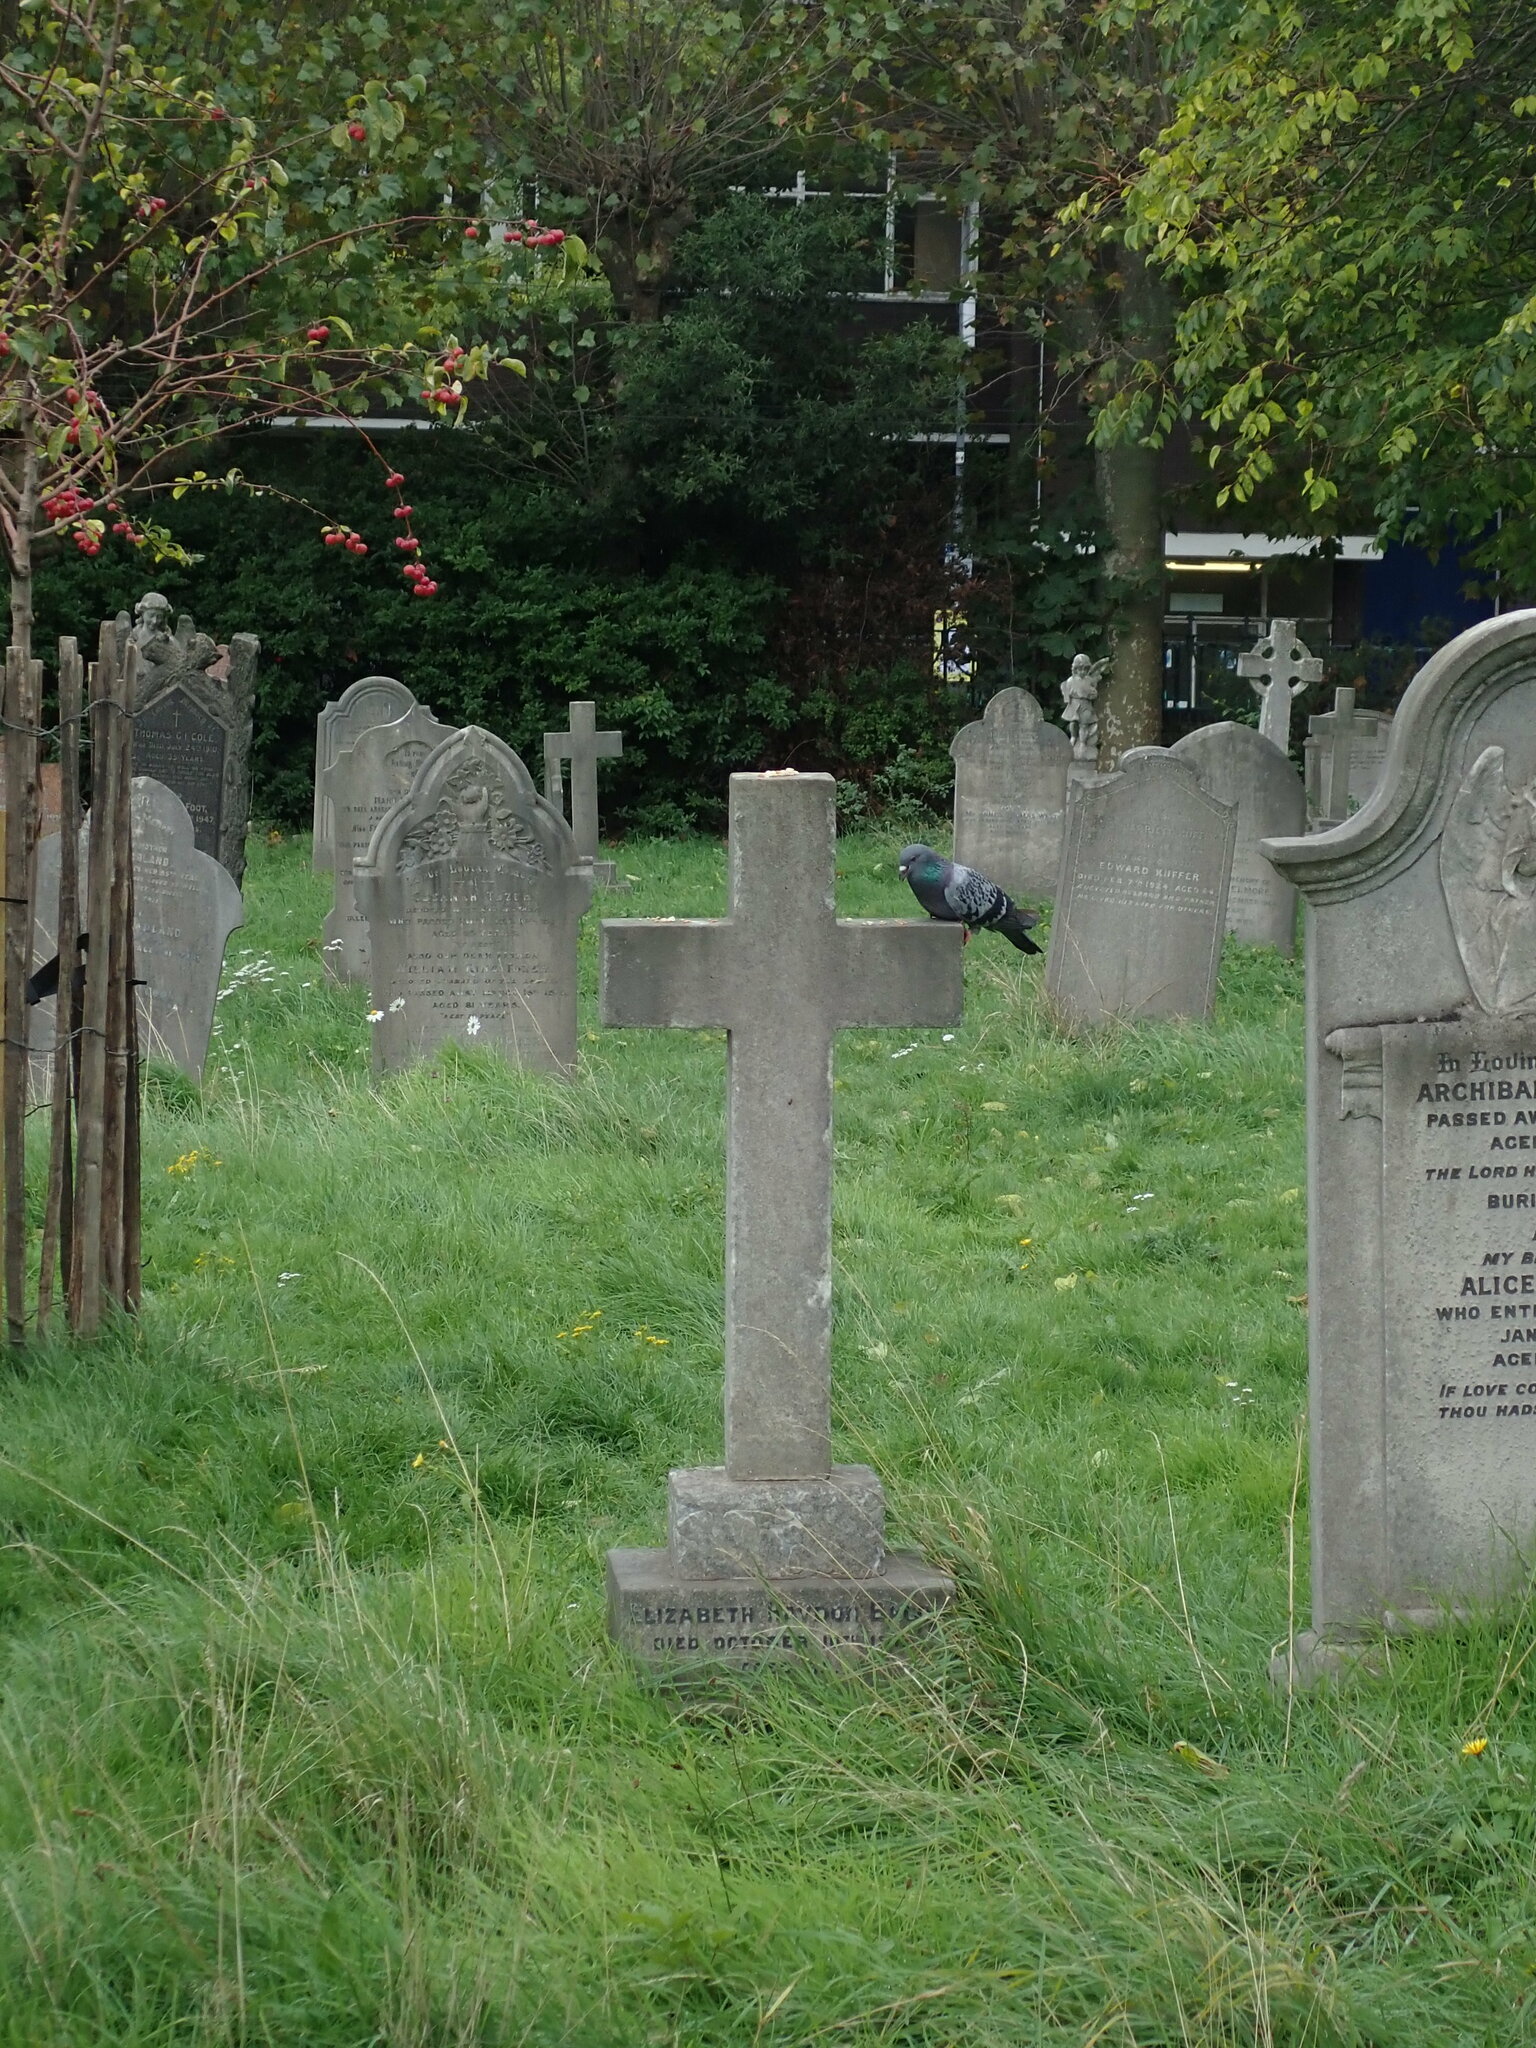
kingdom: Animalia
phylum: Chordata
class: Aves
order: Columbiformes
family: Columbidae
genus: Columba
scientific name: Columba livia
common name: Rock pigeon
